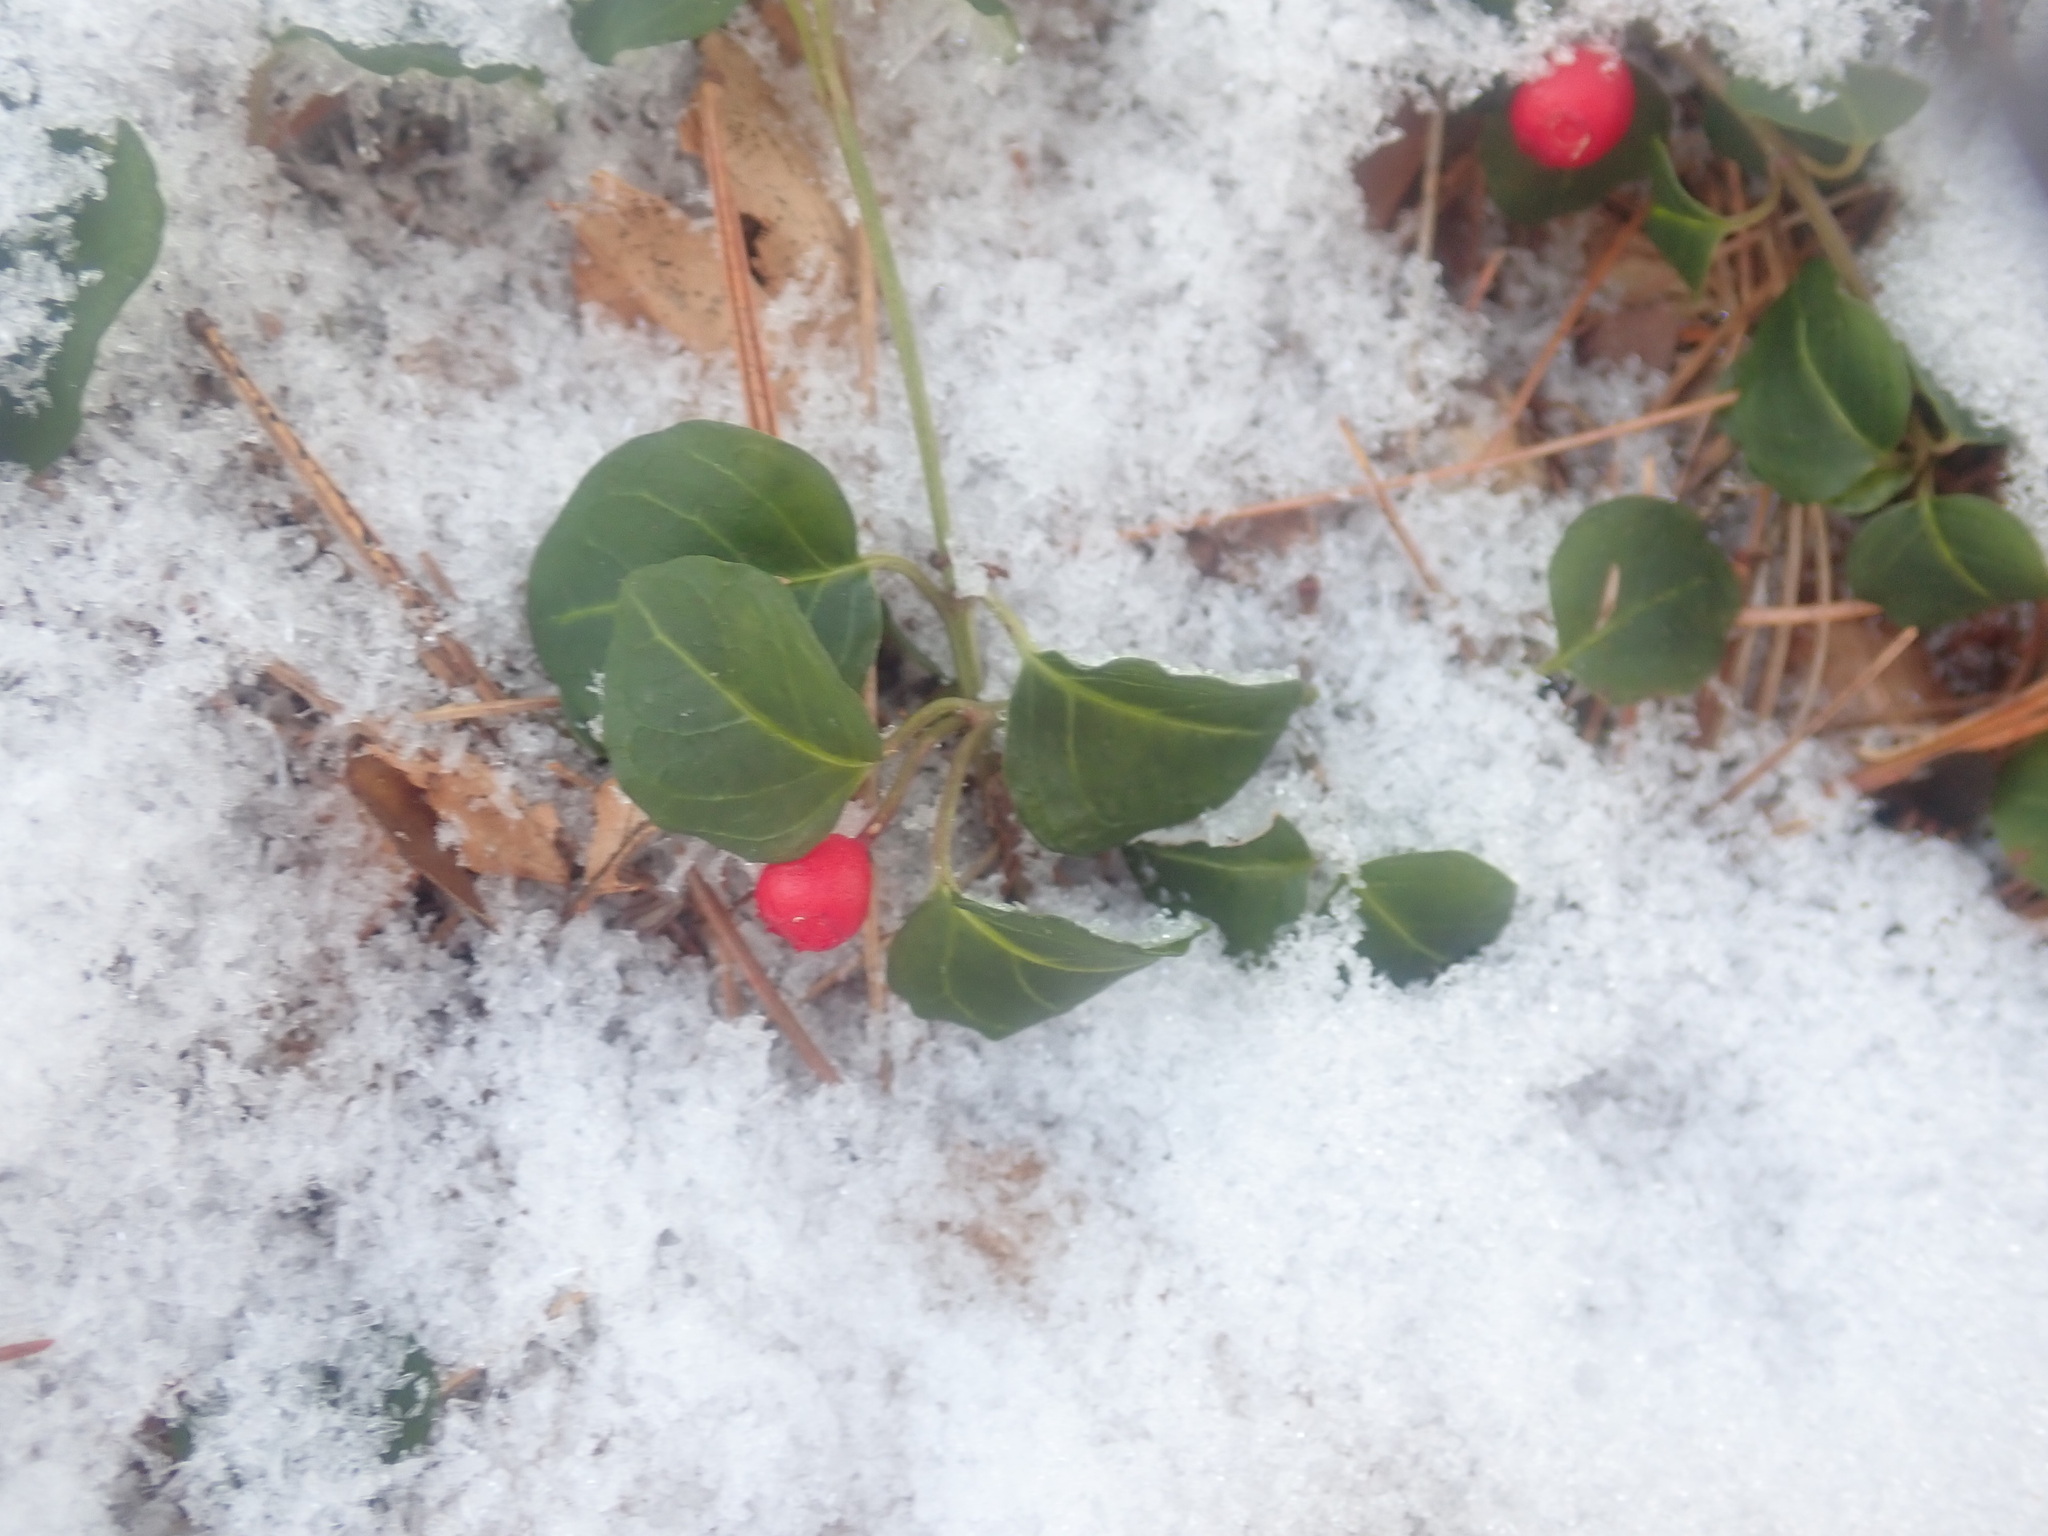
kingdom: Plantae
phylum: Tracheophyta
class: Magnoliopsida
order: Gentianales
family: Rubiaceae
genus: Mitchella
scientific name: Mitchella repens
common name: Partridge-berry
